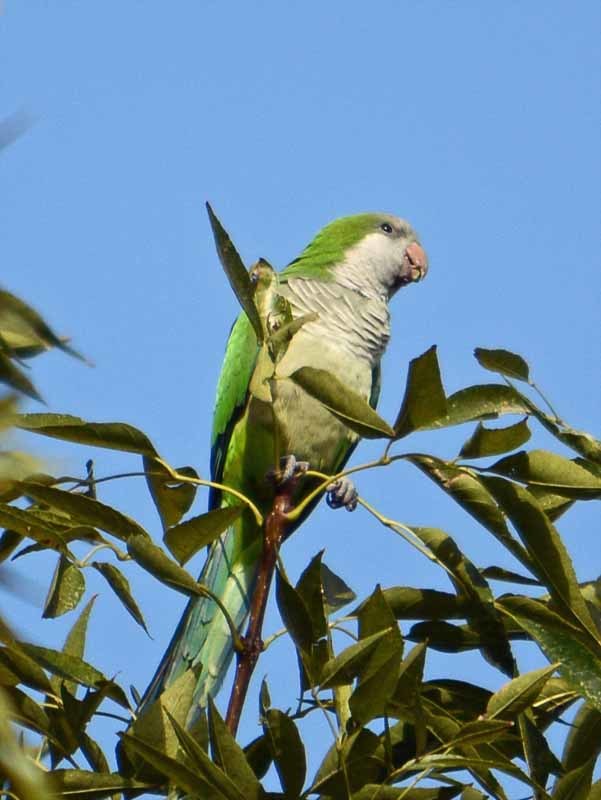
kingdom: Animalia
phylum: Chordata
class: Aves
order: Psittaciformes
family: Psittacidae
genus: Myiopsitta
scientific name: Myiopsitta monachus
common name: Monk parakeet
